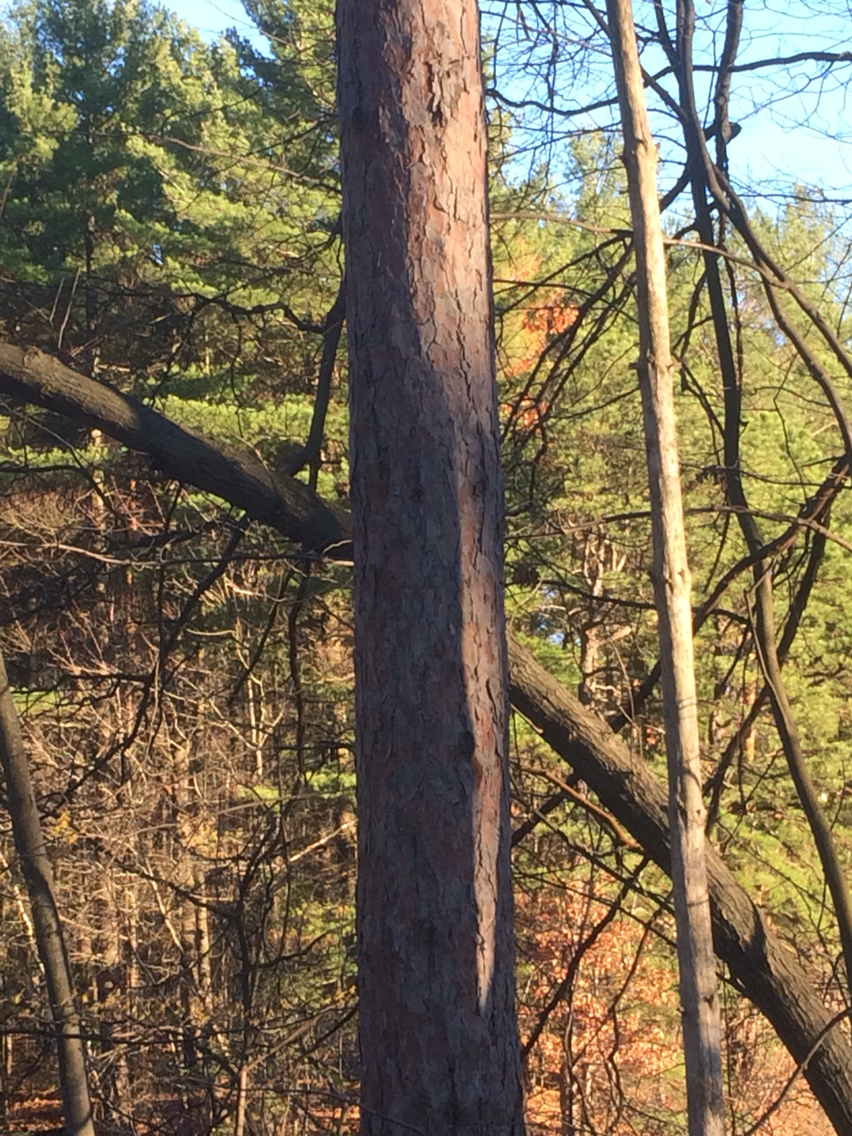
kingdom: Plantae
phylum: Tracheophyta
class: Pinopsida
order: Pinales
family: Pinaceae
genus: Pinus
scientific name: Pinus resinosa
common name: Norway pine
